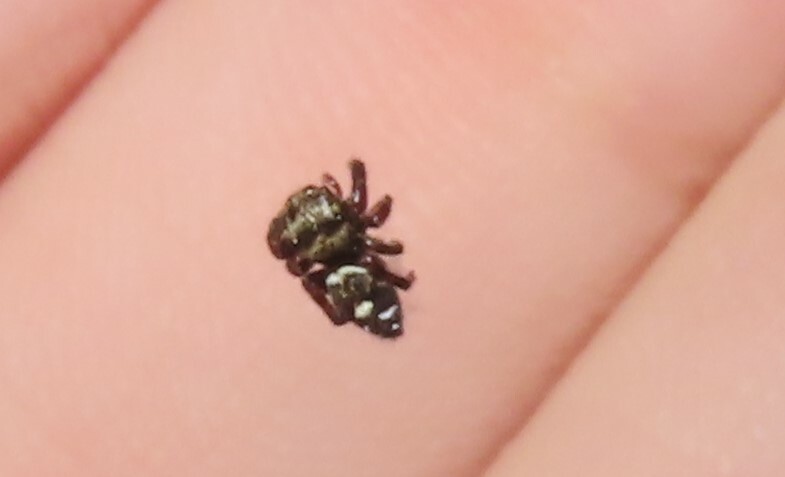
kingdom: Animalia
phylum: Arthropoda
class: Arachnida
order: Araneae
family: Salticidae
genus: Paraphidippus
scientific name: Paraphidippus aurantius
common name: Jumping spiders
